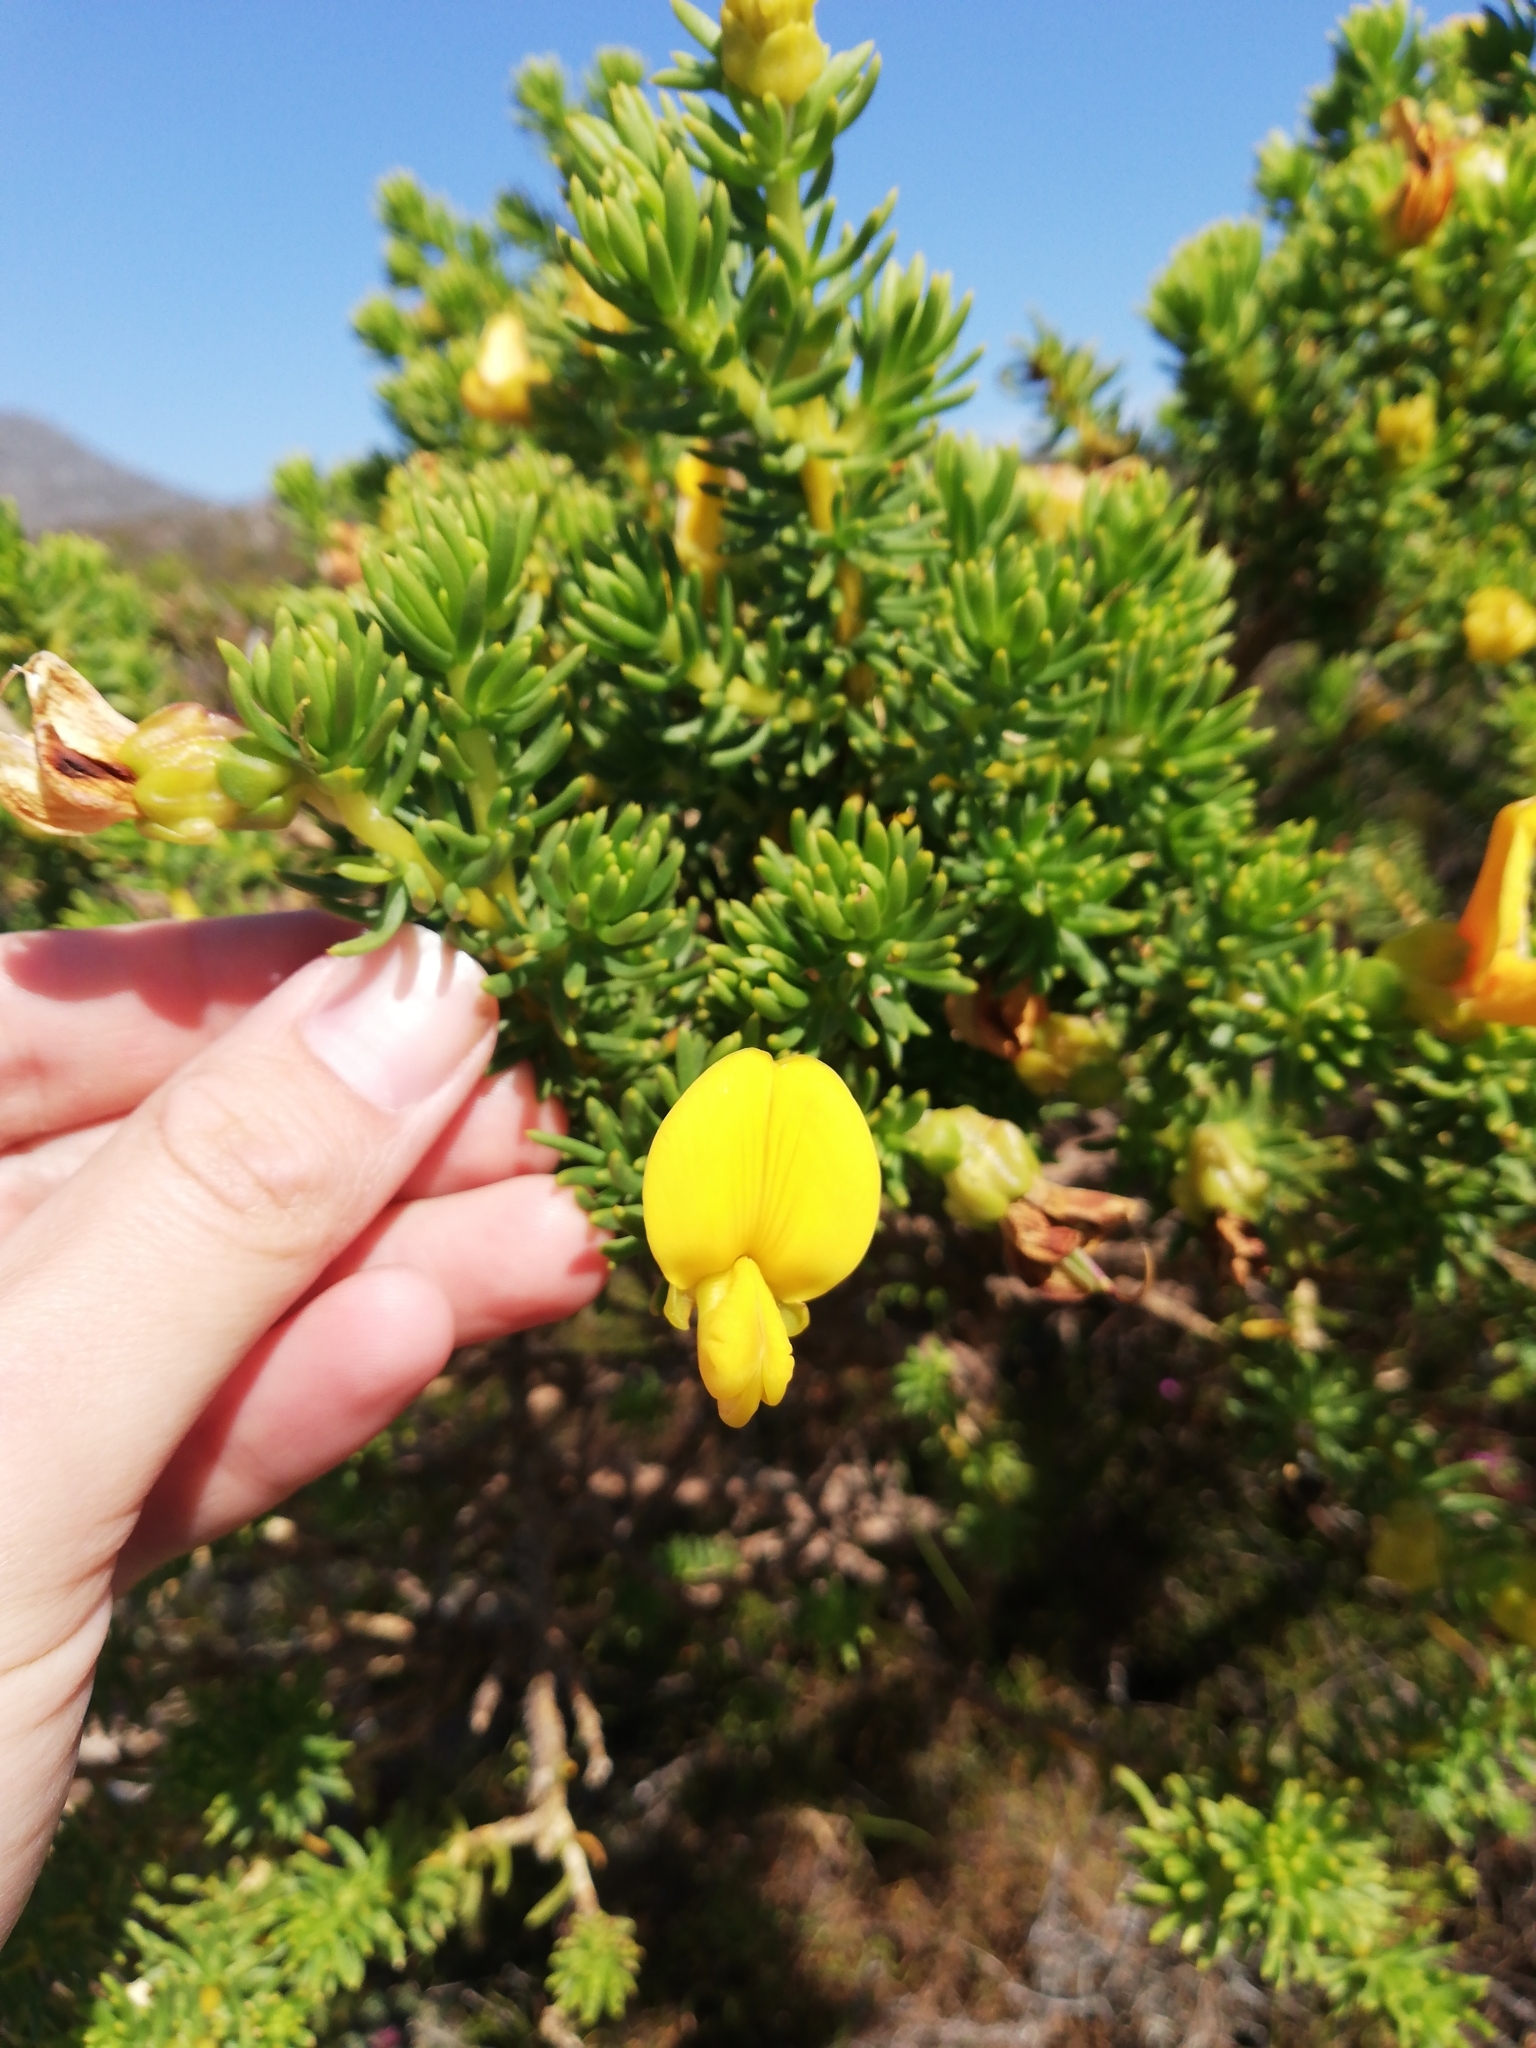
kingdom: Plantae
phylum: Tracheophyta
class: Magnoliopsida
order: Fabales
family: Fabaceae
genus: Aspalathus
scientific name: Aspalathus capensis
